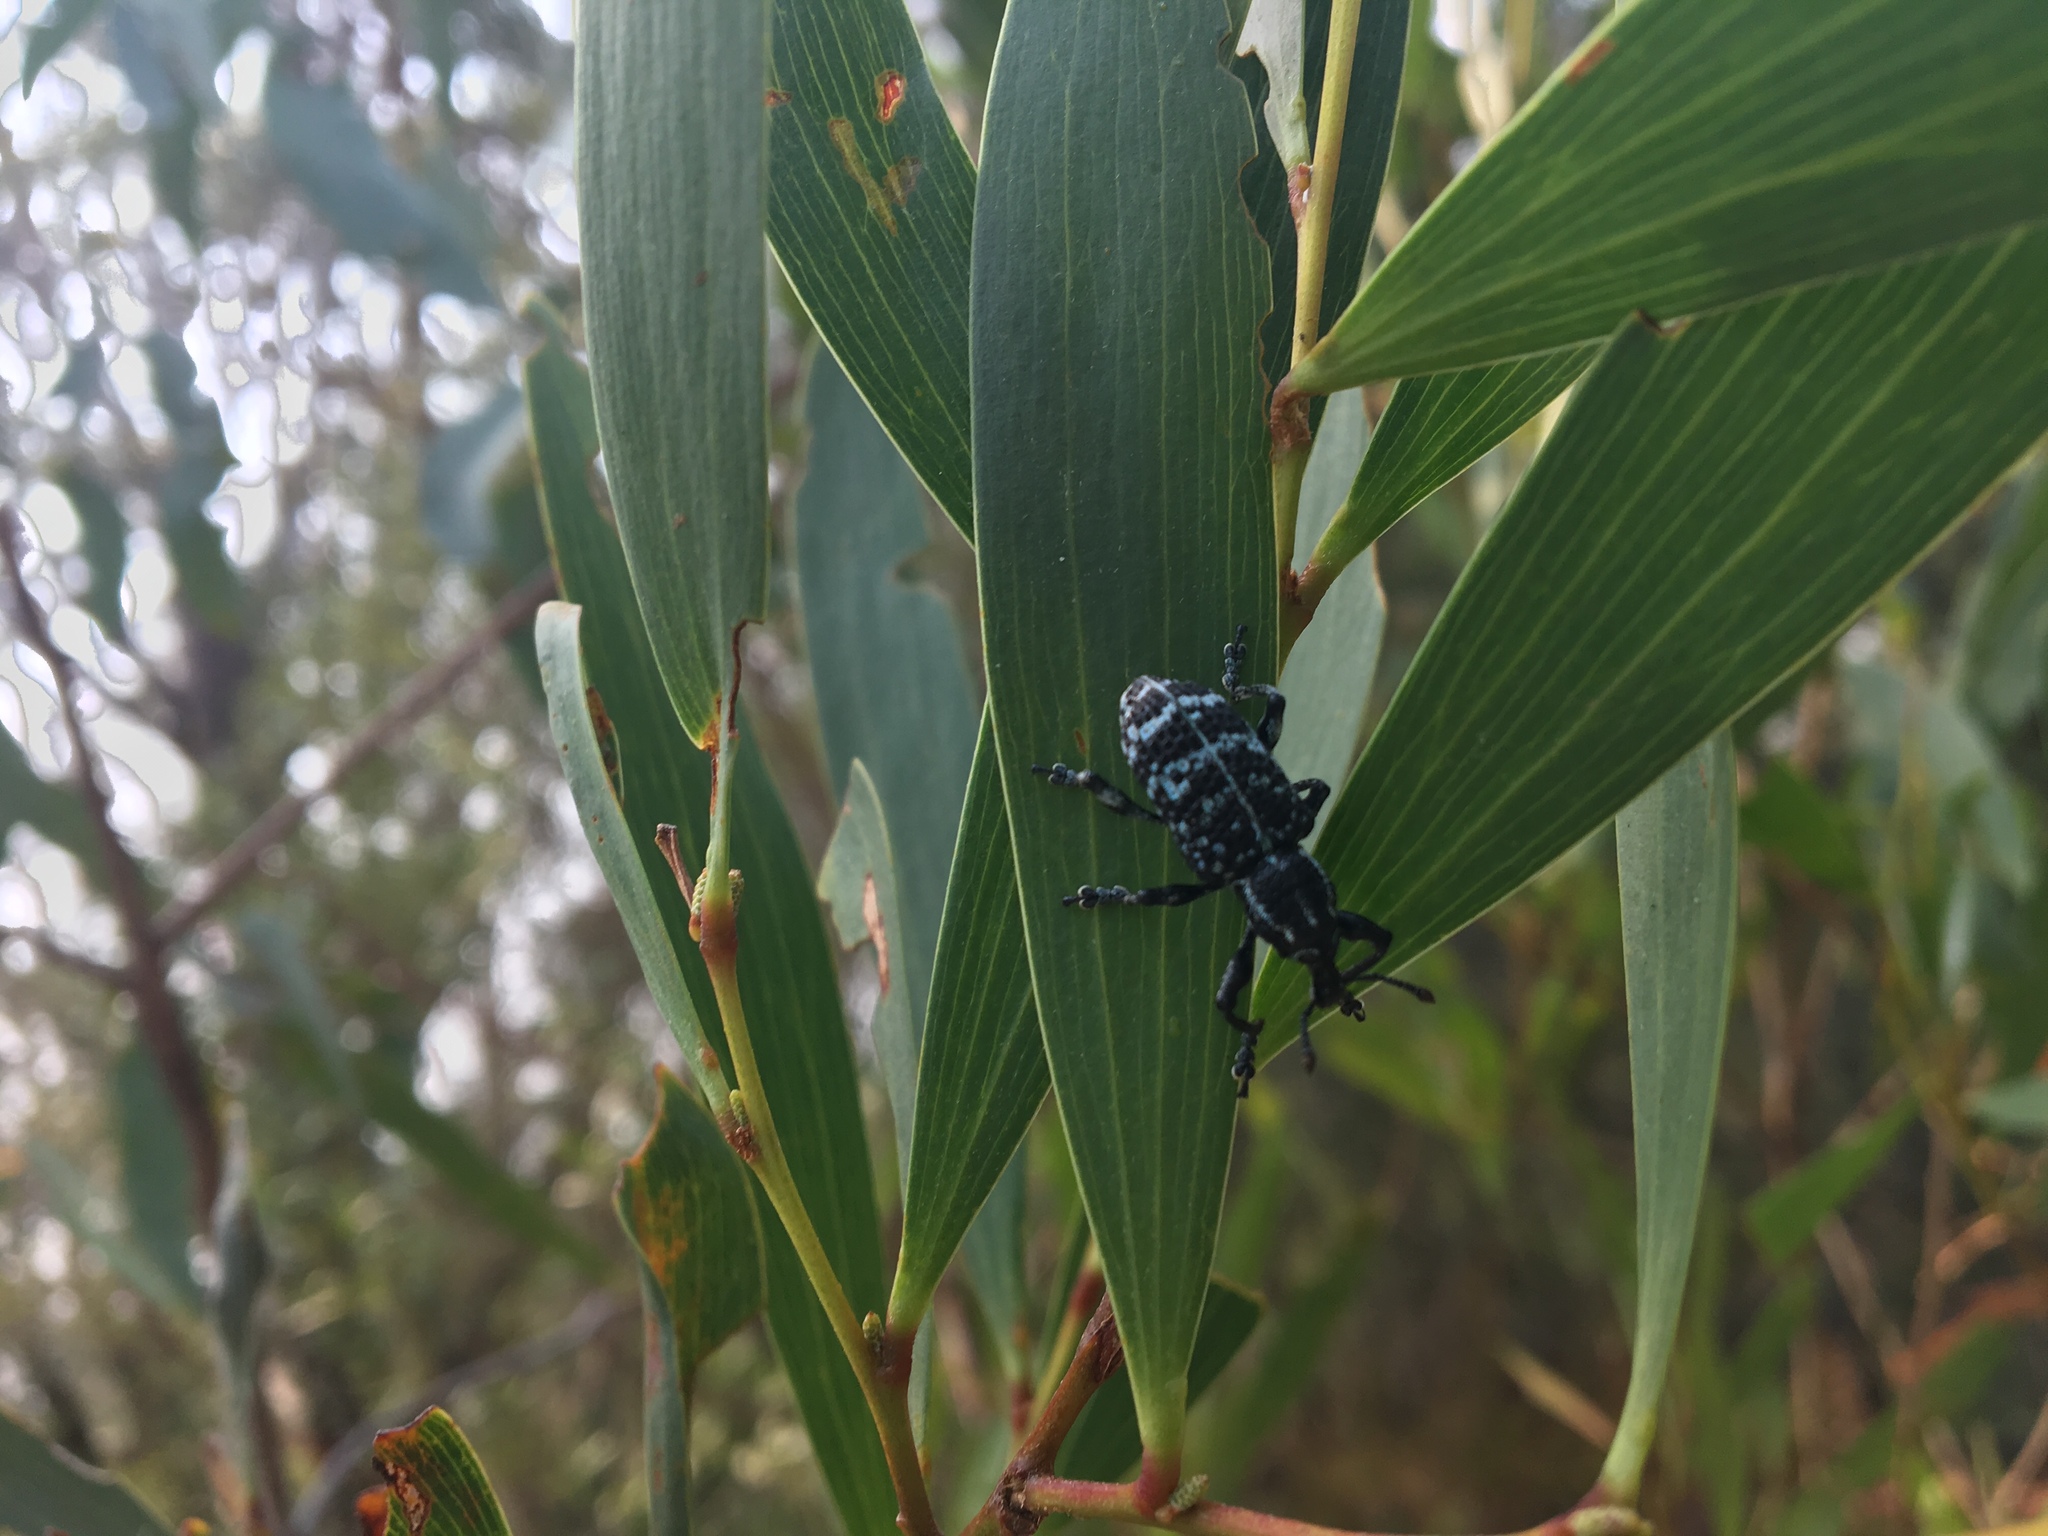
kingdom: Animalia
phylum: Arthropoda
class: Insecta
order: Coleoptera
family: Curculionidae
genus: Chrysolopus
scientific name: Chrysolopus spectabilis
